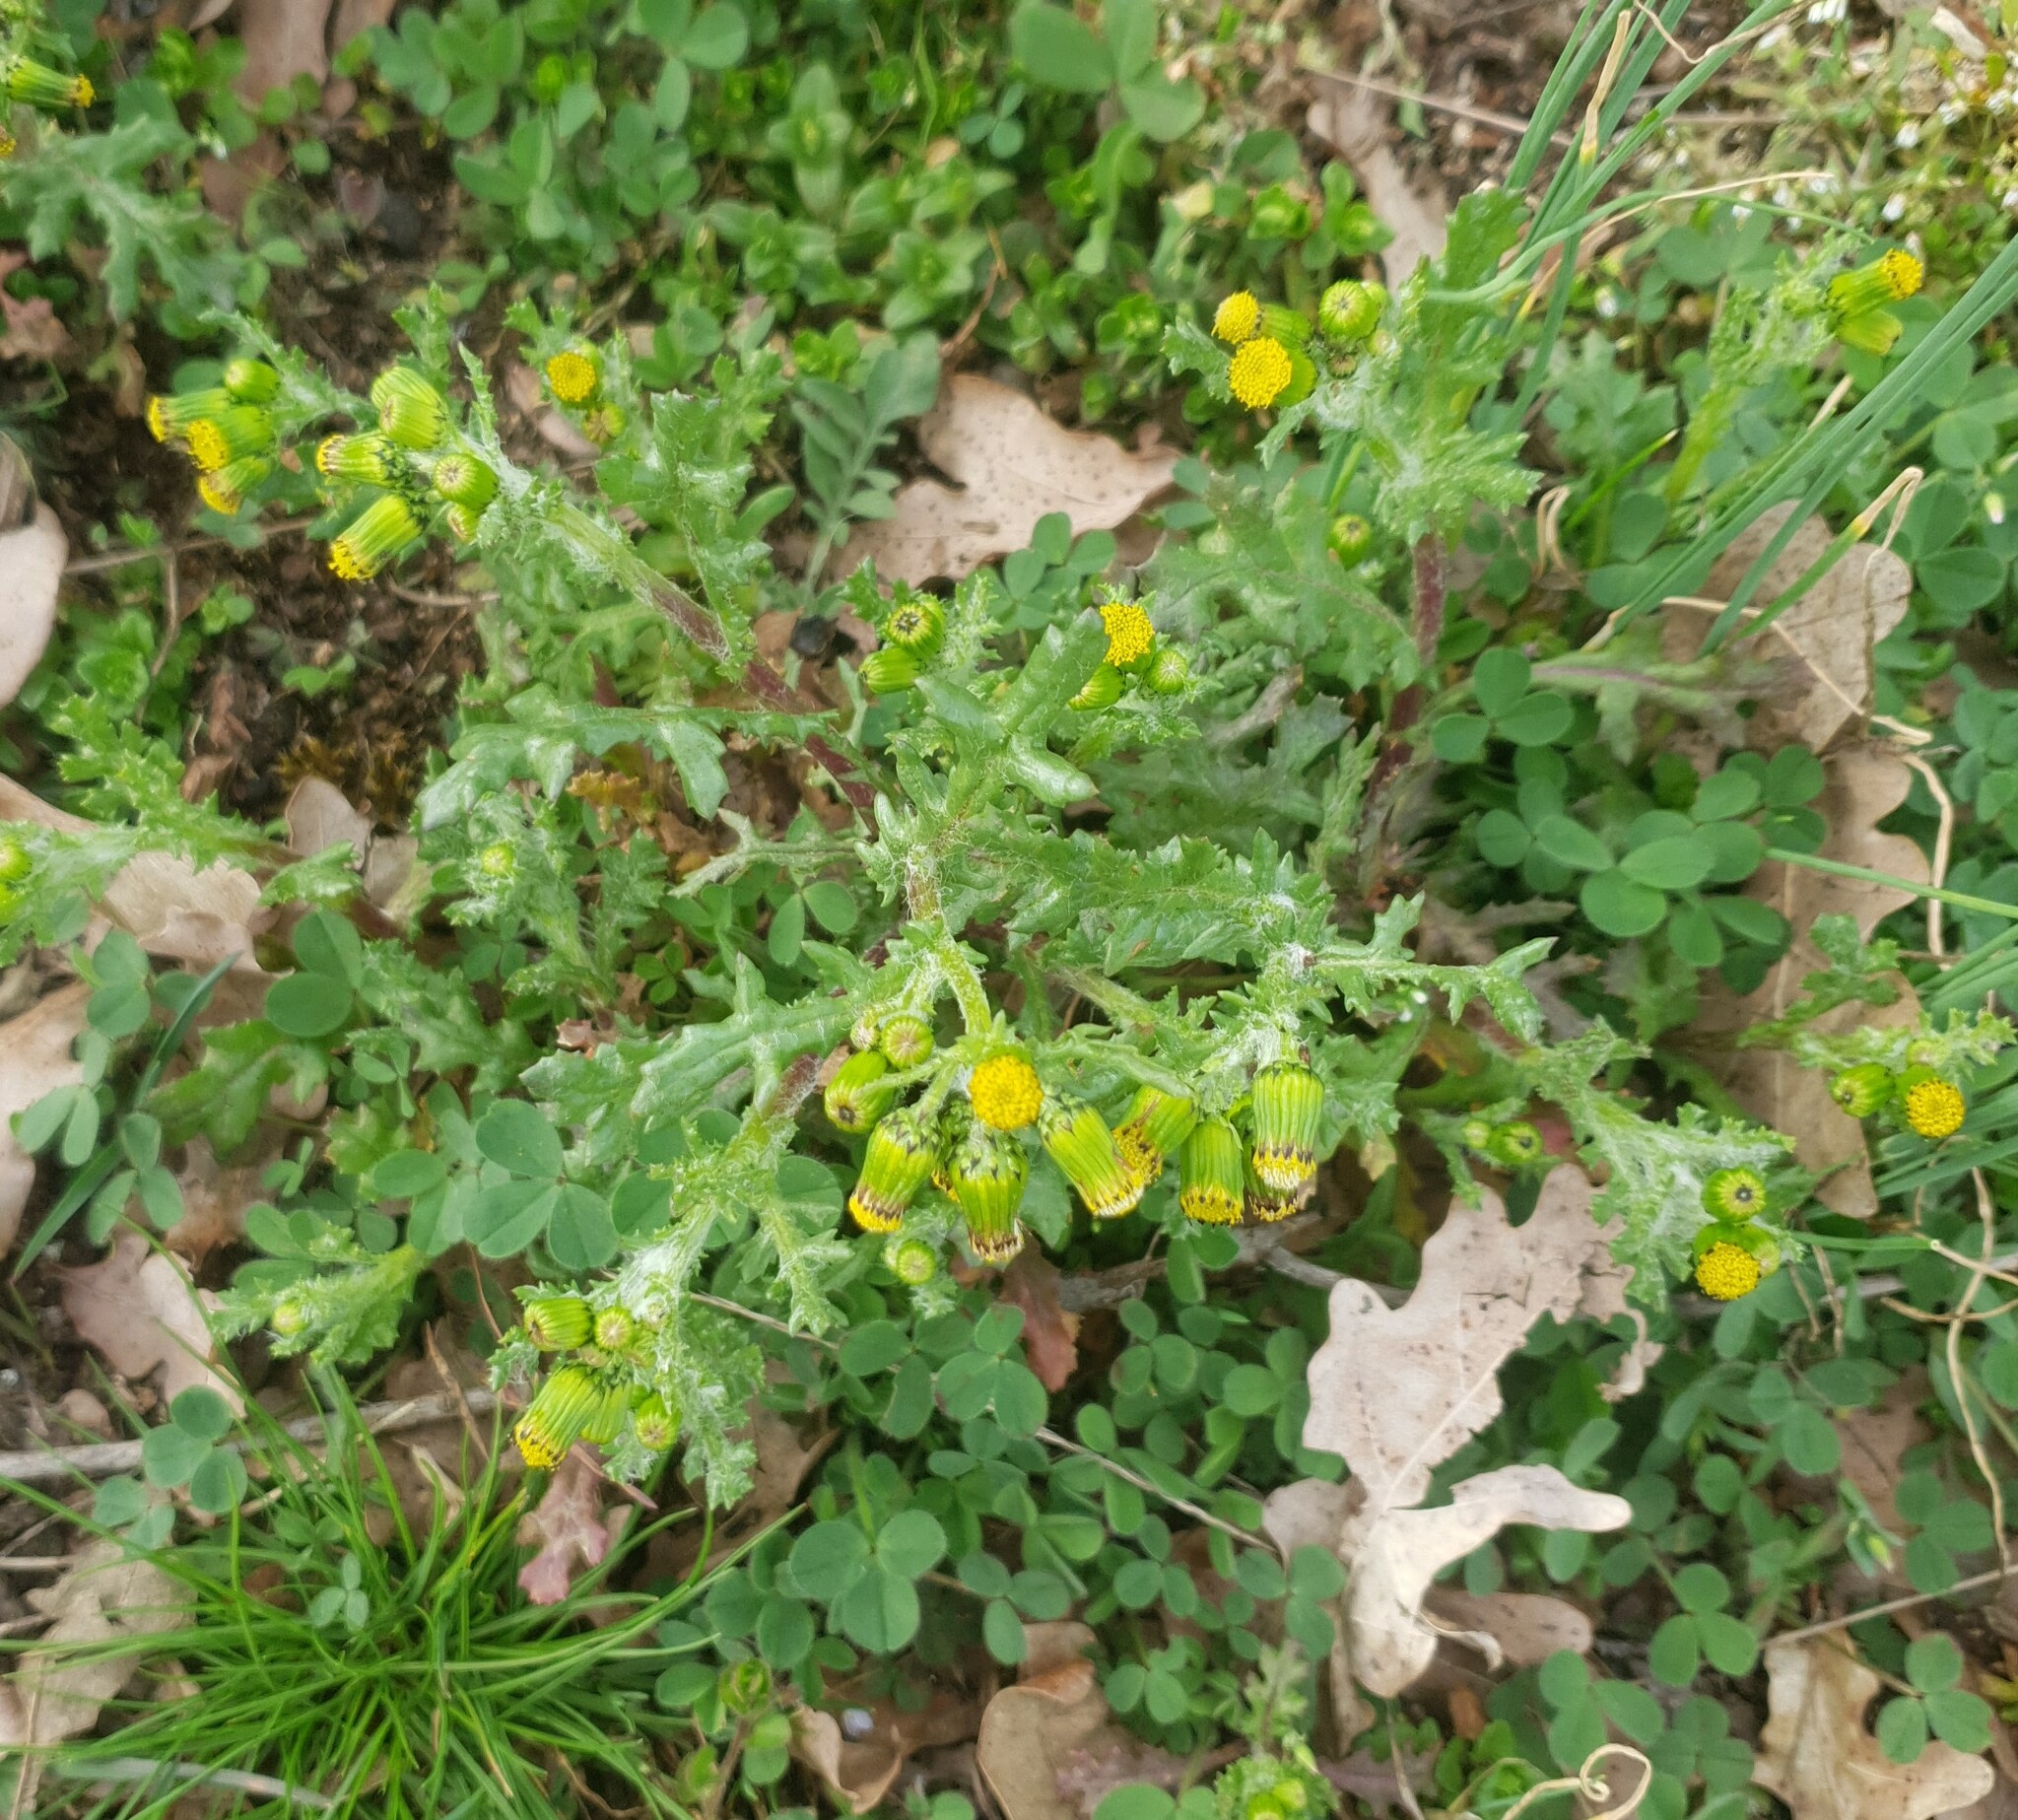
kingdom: Plantae
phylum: Tracheophyta
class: Magnoliopsida
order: Asterales
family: Asteraceae
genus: Senecio
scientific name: Senecio vulgaris
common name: Old-man-in-the-spring
